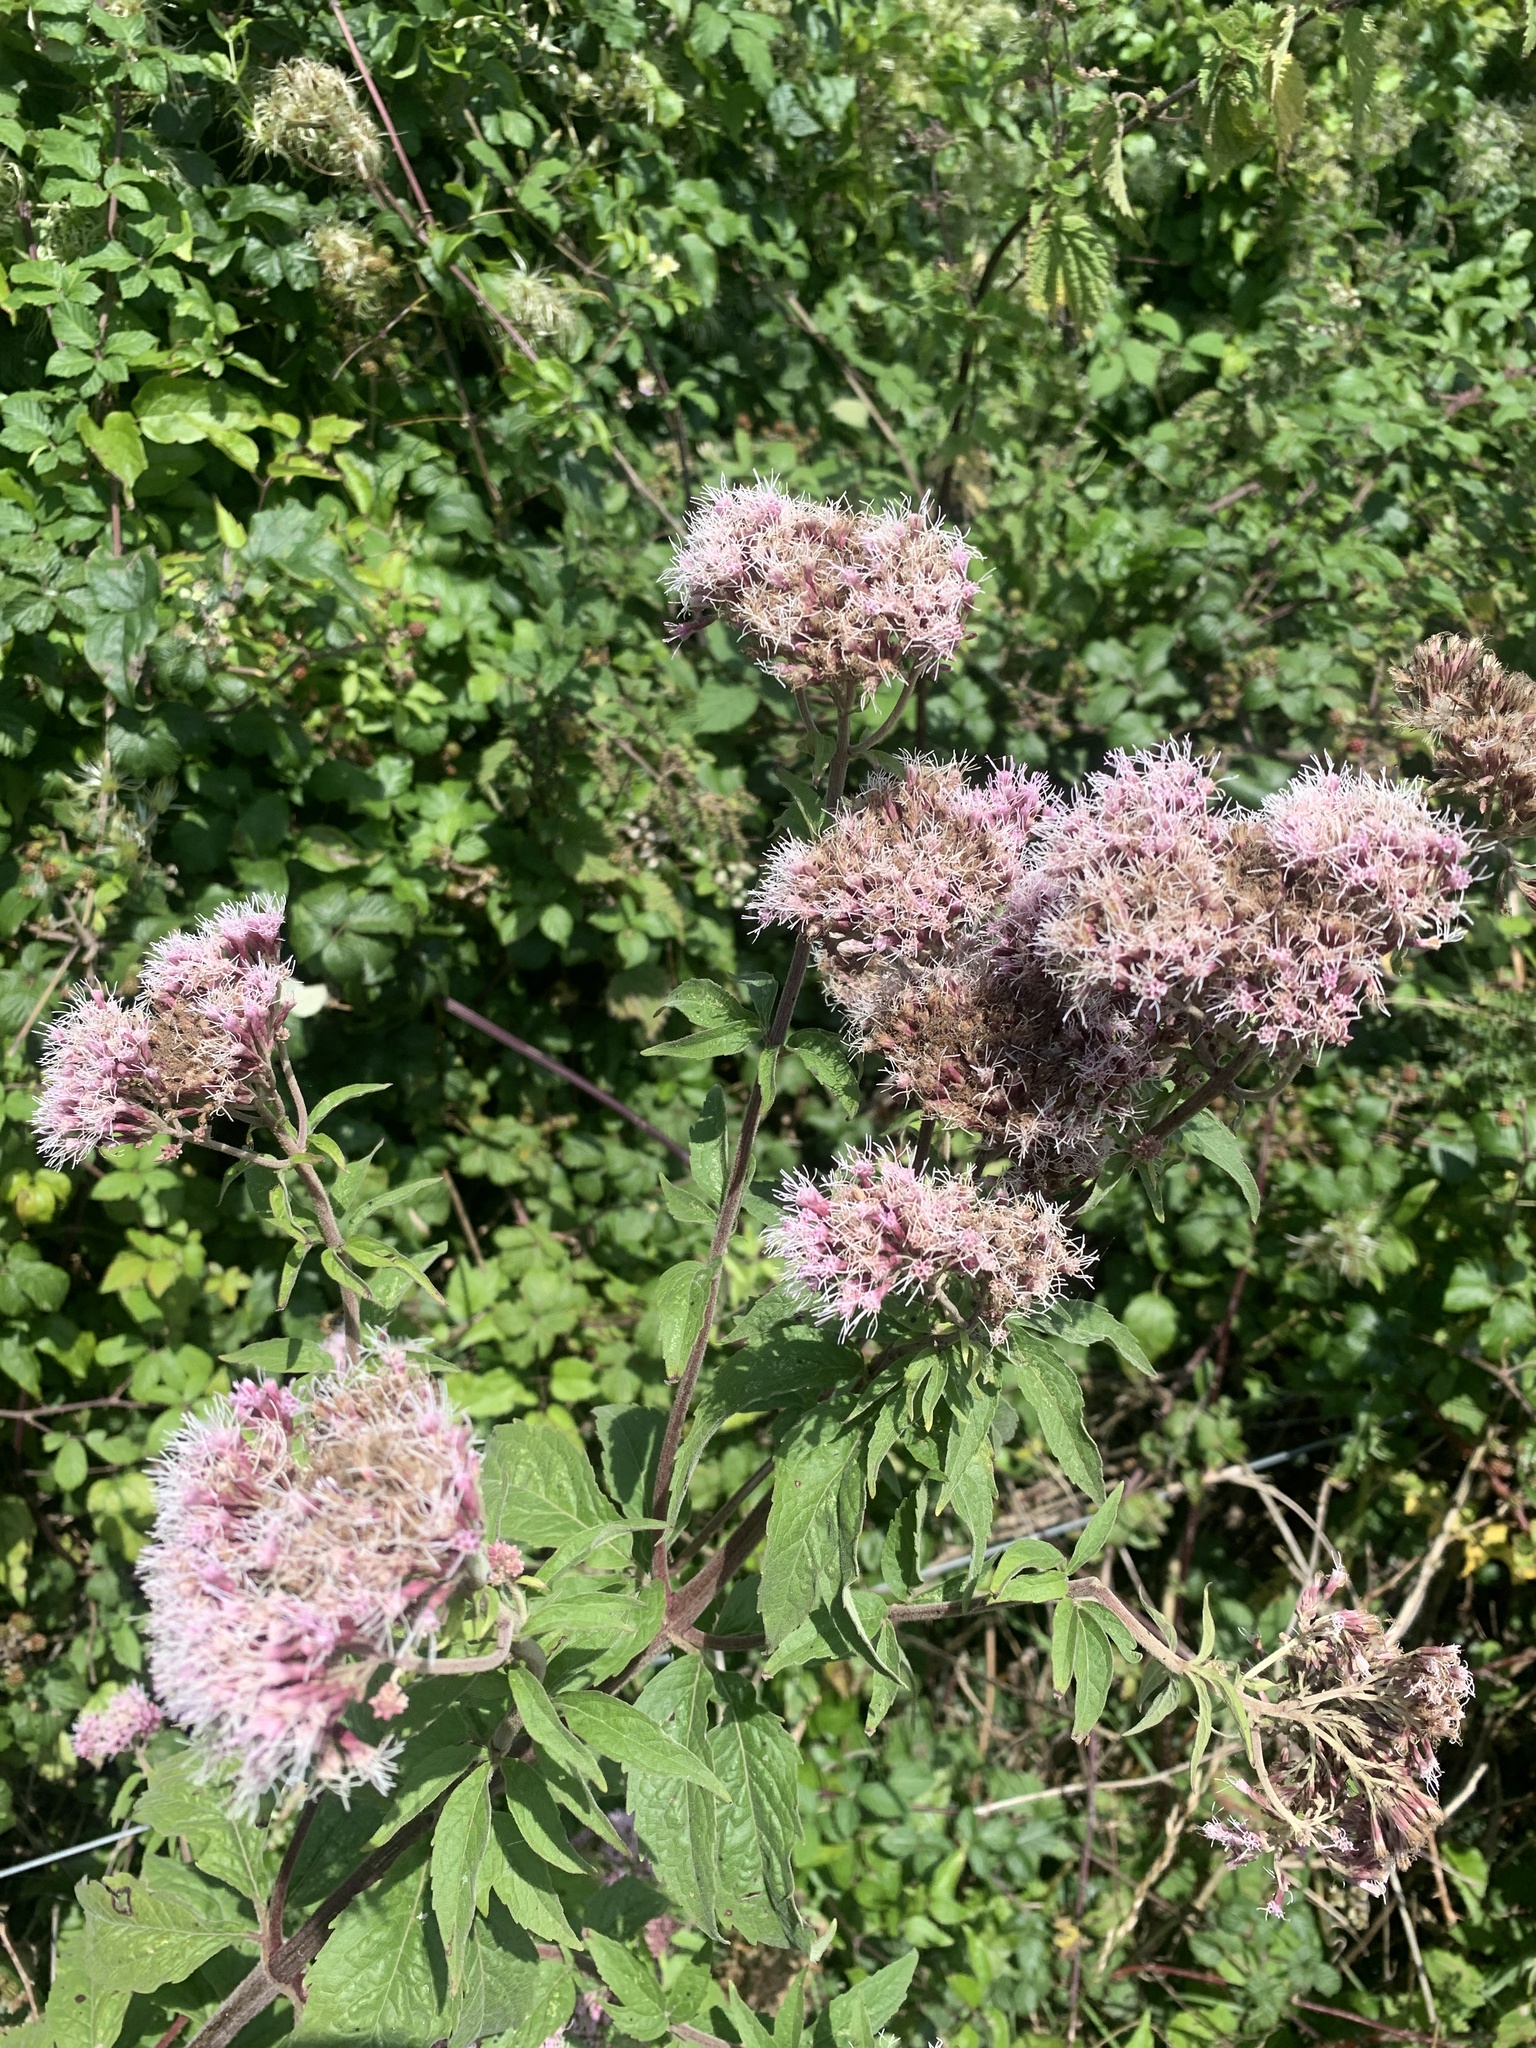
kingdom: Plantae
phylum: Tracheophyta
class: Magnoliopsida
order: Asterales
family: Asteraceae
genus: Eupatorium
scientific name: Eupatorium cannabinum
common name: Hemp-agrimony
